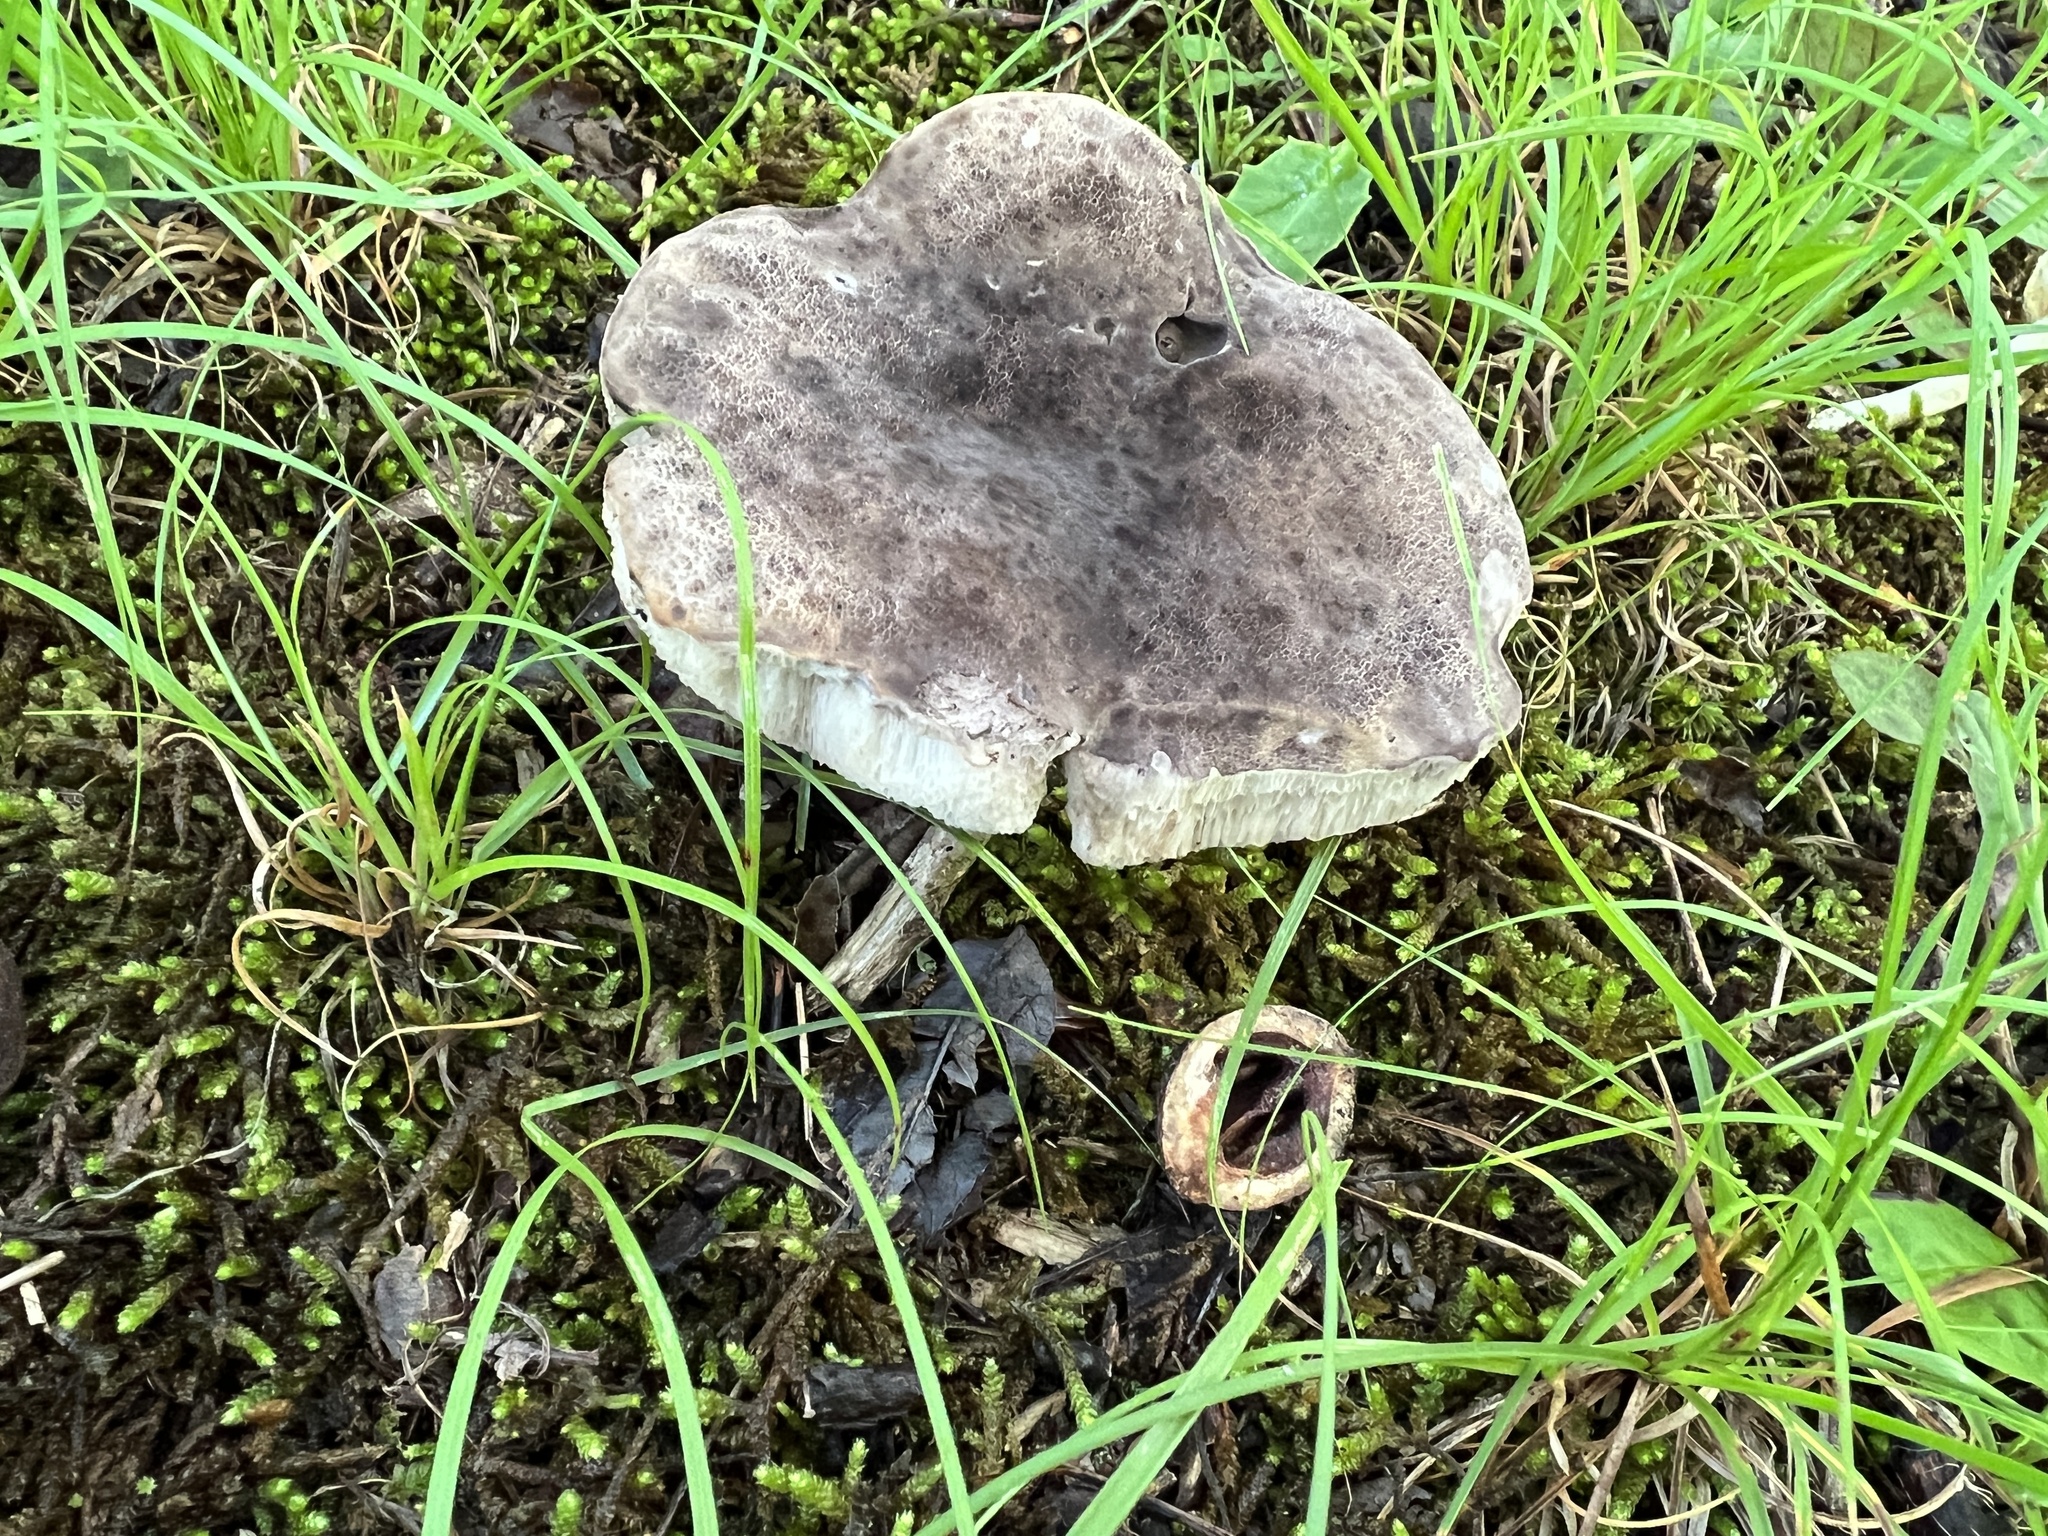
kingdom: Fungi
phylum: Basidiomycota
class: Agaricomycetes
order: Boletales
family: Boletaceae
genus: Tylopilus
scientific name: Tylopilus alboater
